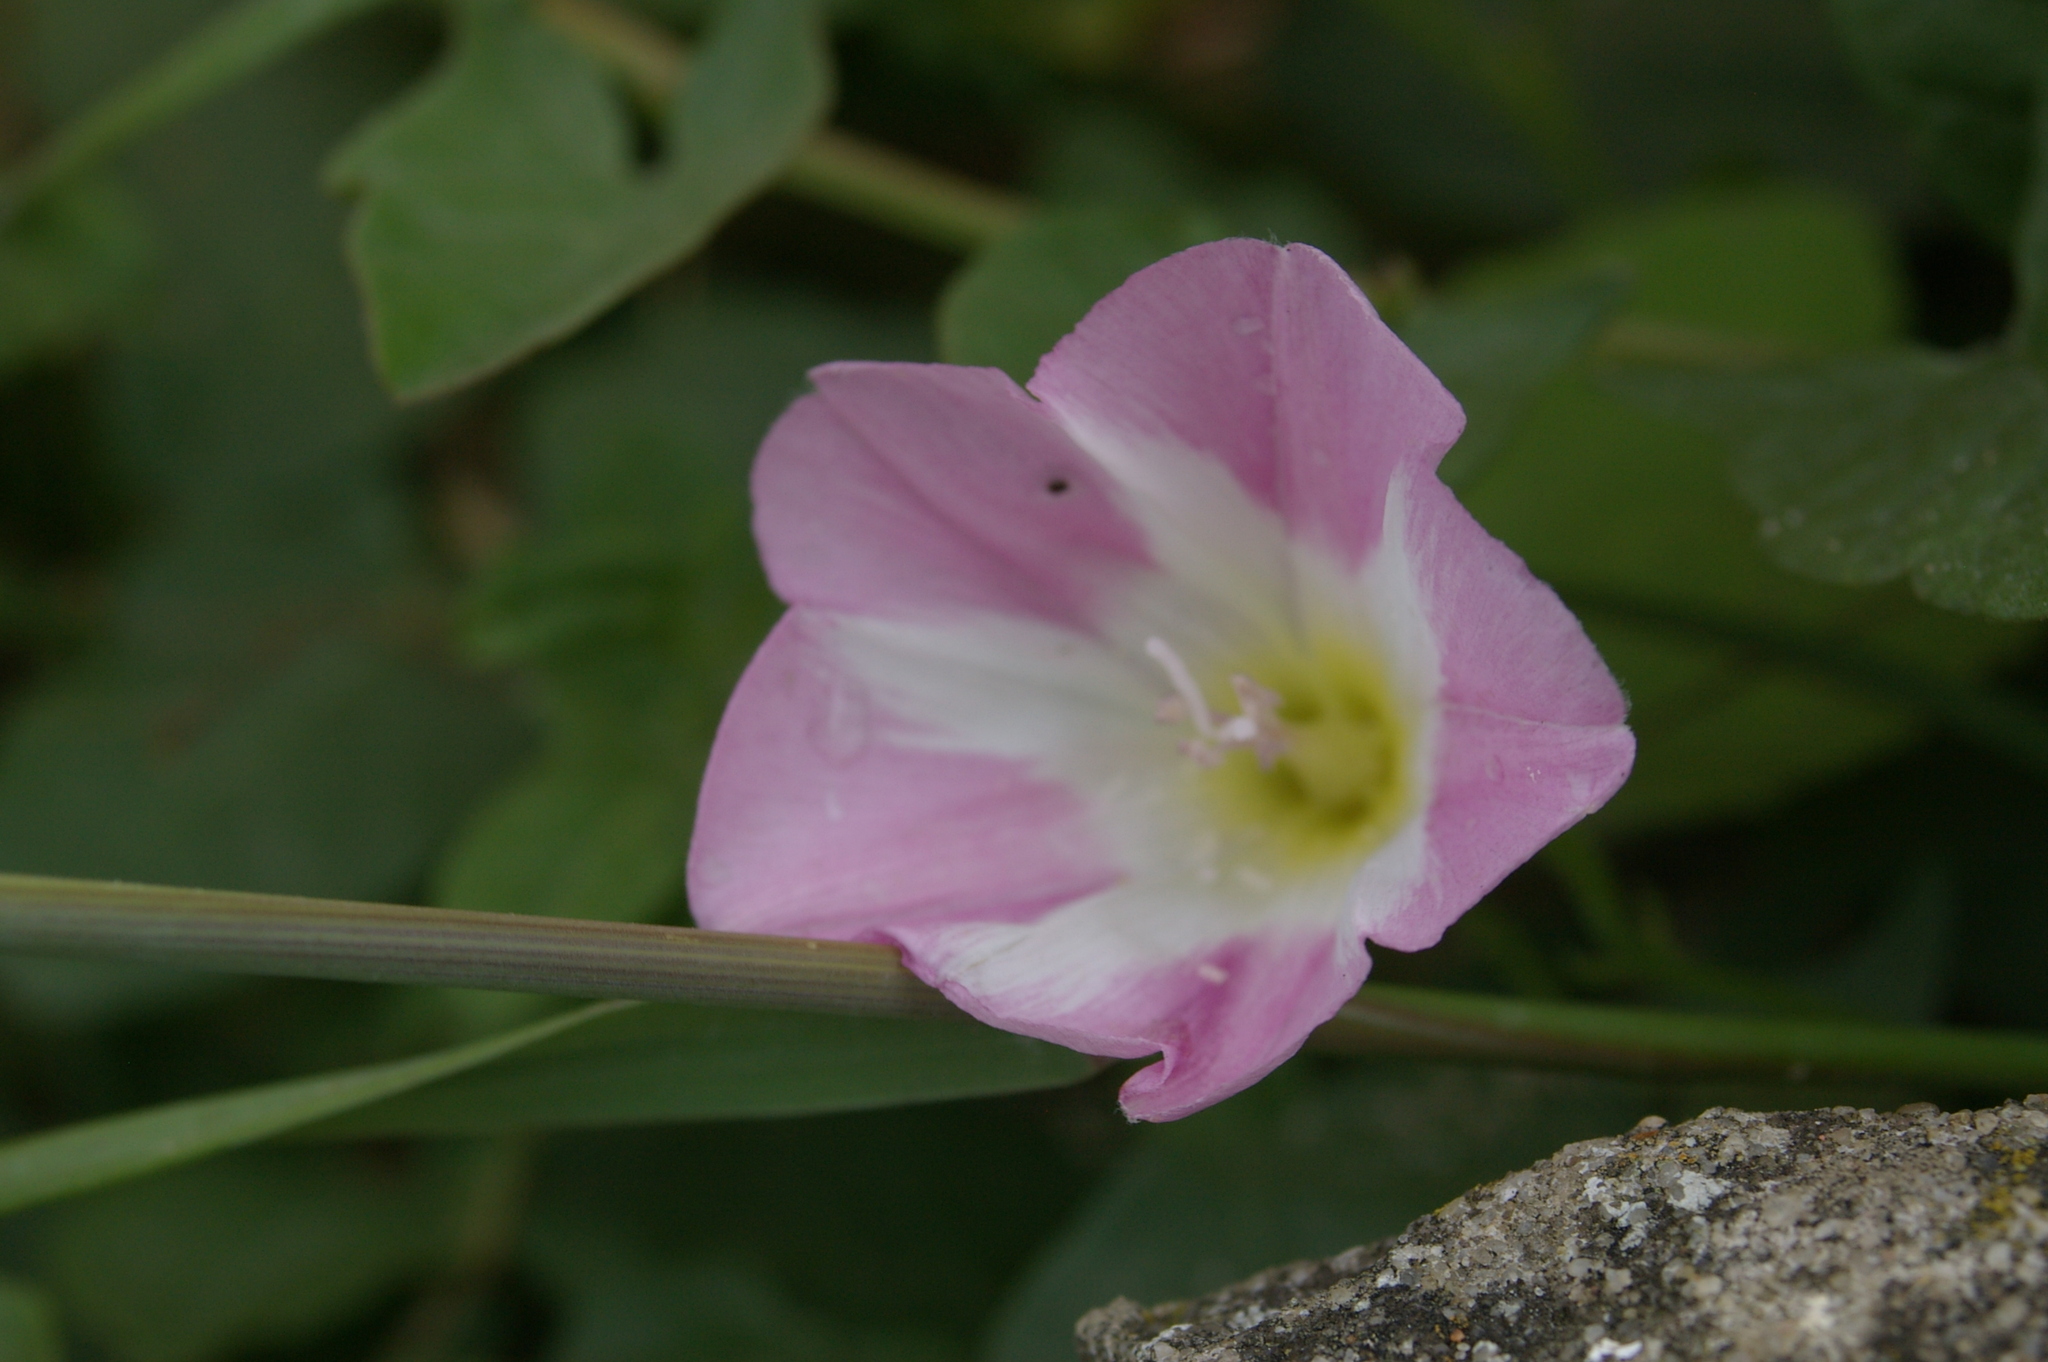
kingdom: Plantae
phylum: Tracheophyta
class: Magnoliopsida
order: Solanales
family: Convolvulaceae
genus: Convolvulus
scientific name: Convolvulus arvensis
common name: Field bindweed
